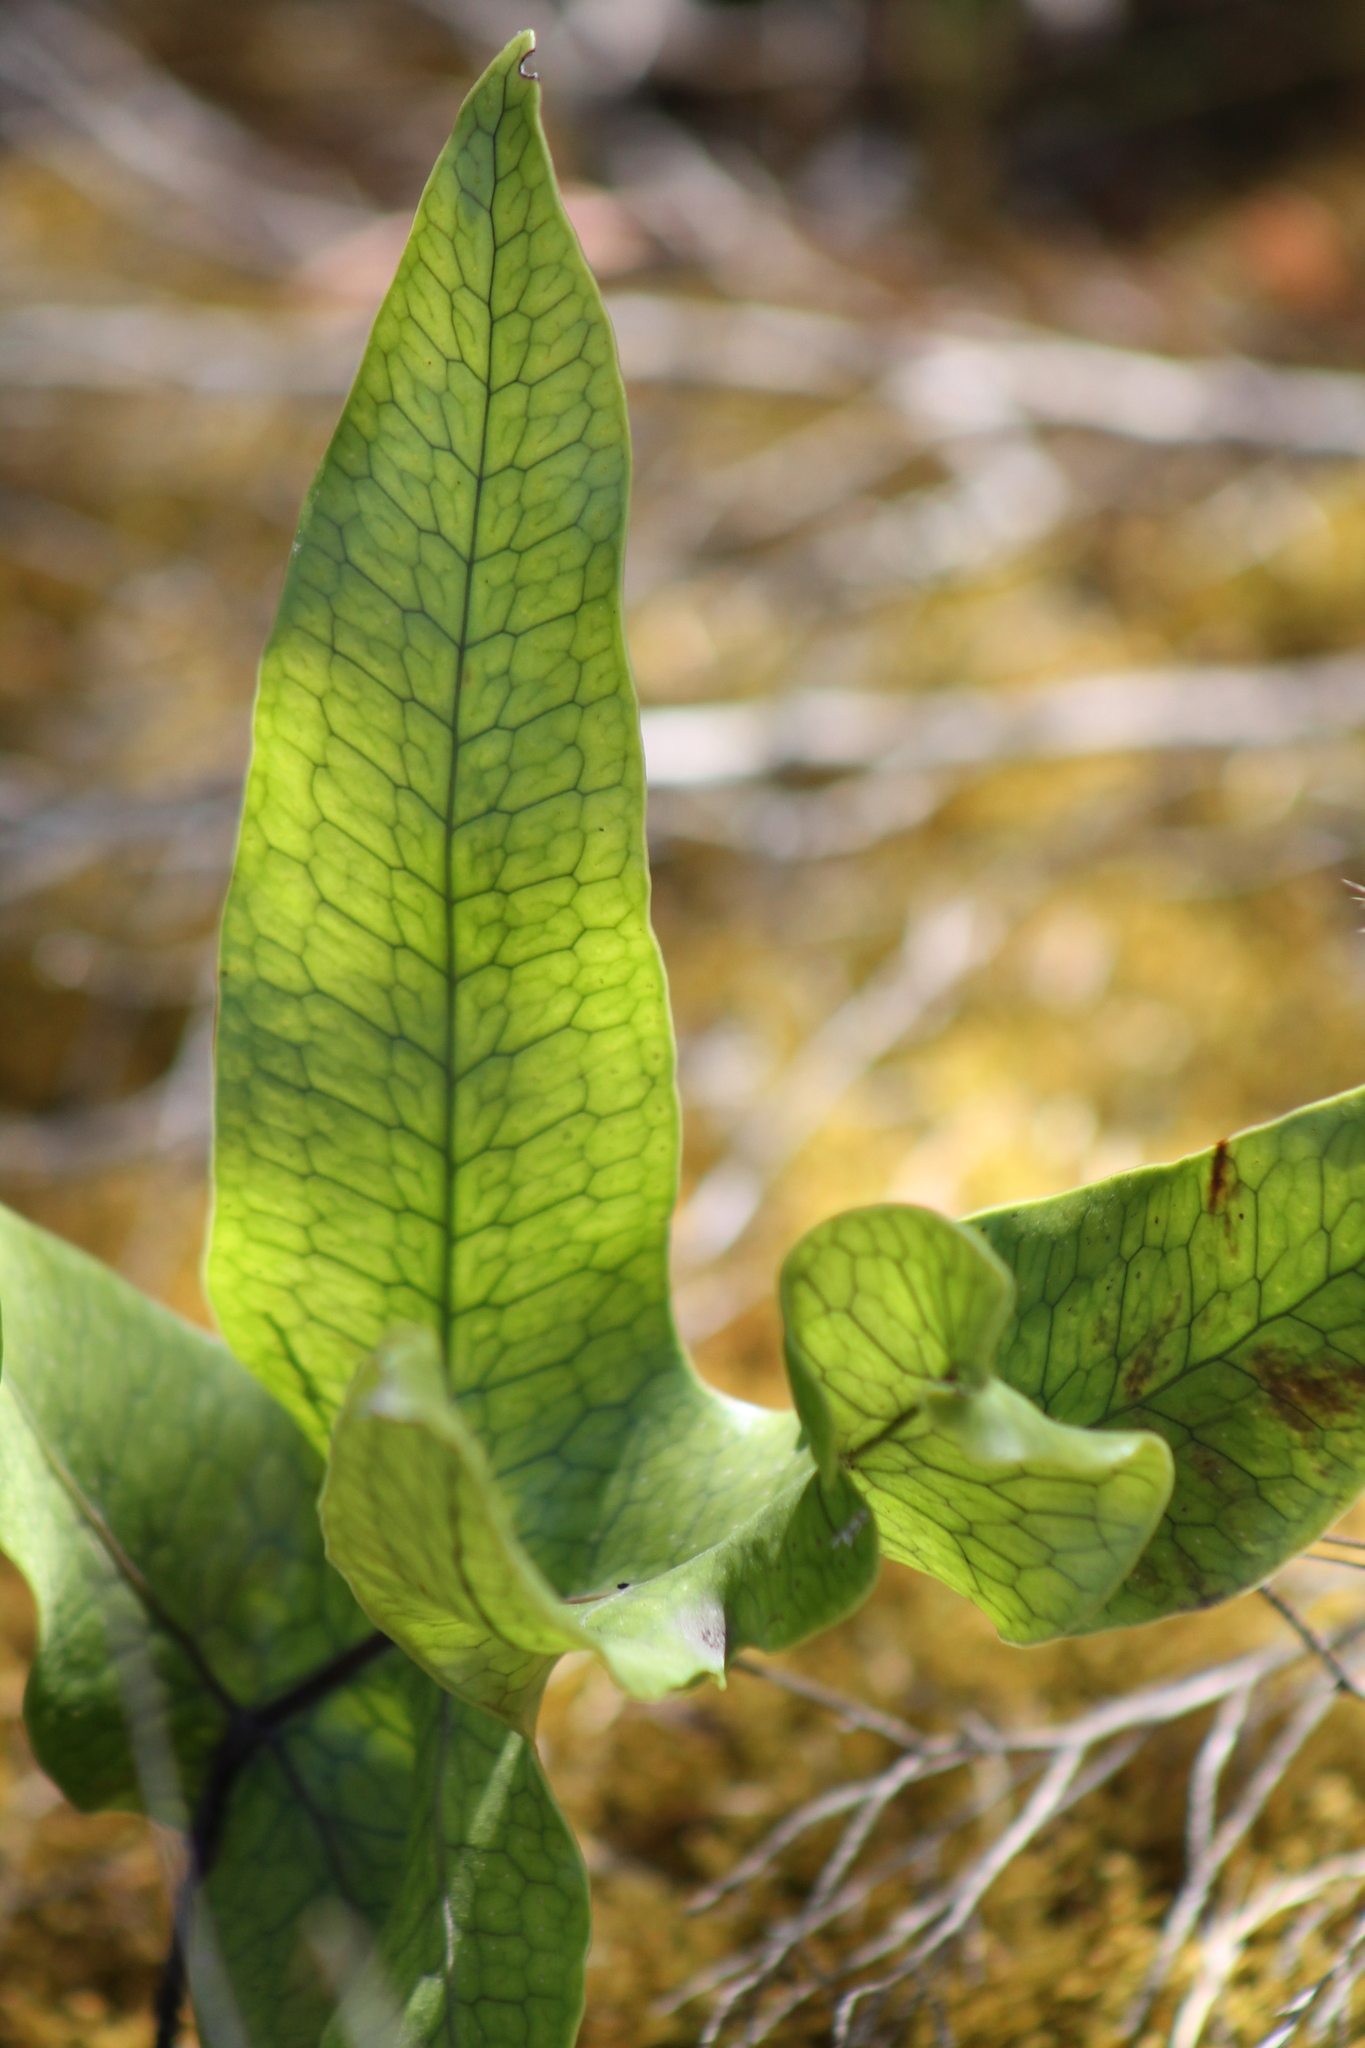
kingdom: Plantae
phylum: Tracheophyta
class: Polypodiopsida
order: Polypodiales
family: Polypodiaceae
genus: Lecanopteris
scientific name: Lecanopteris pustulata
